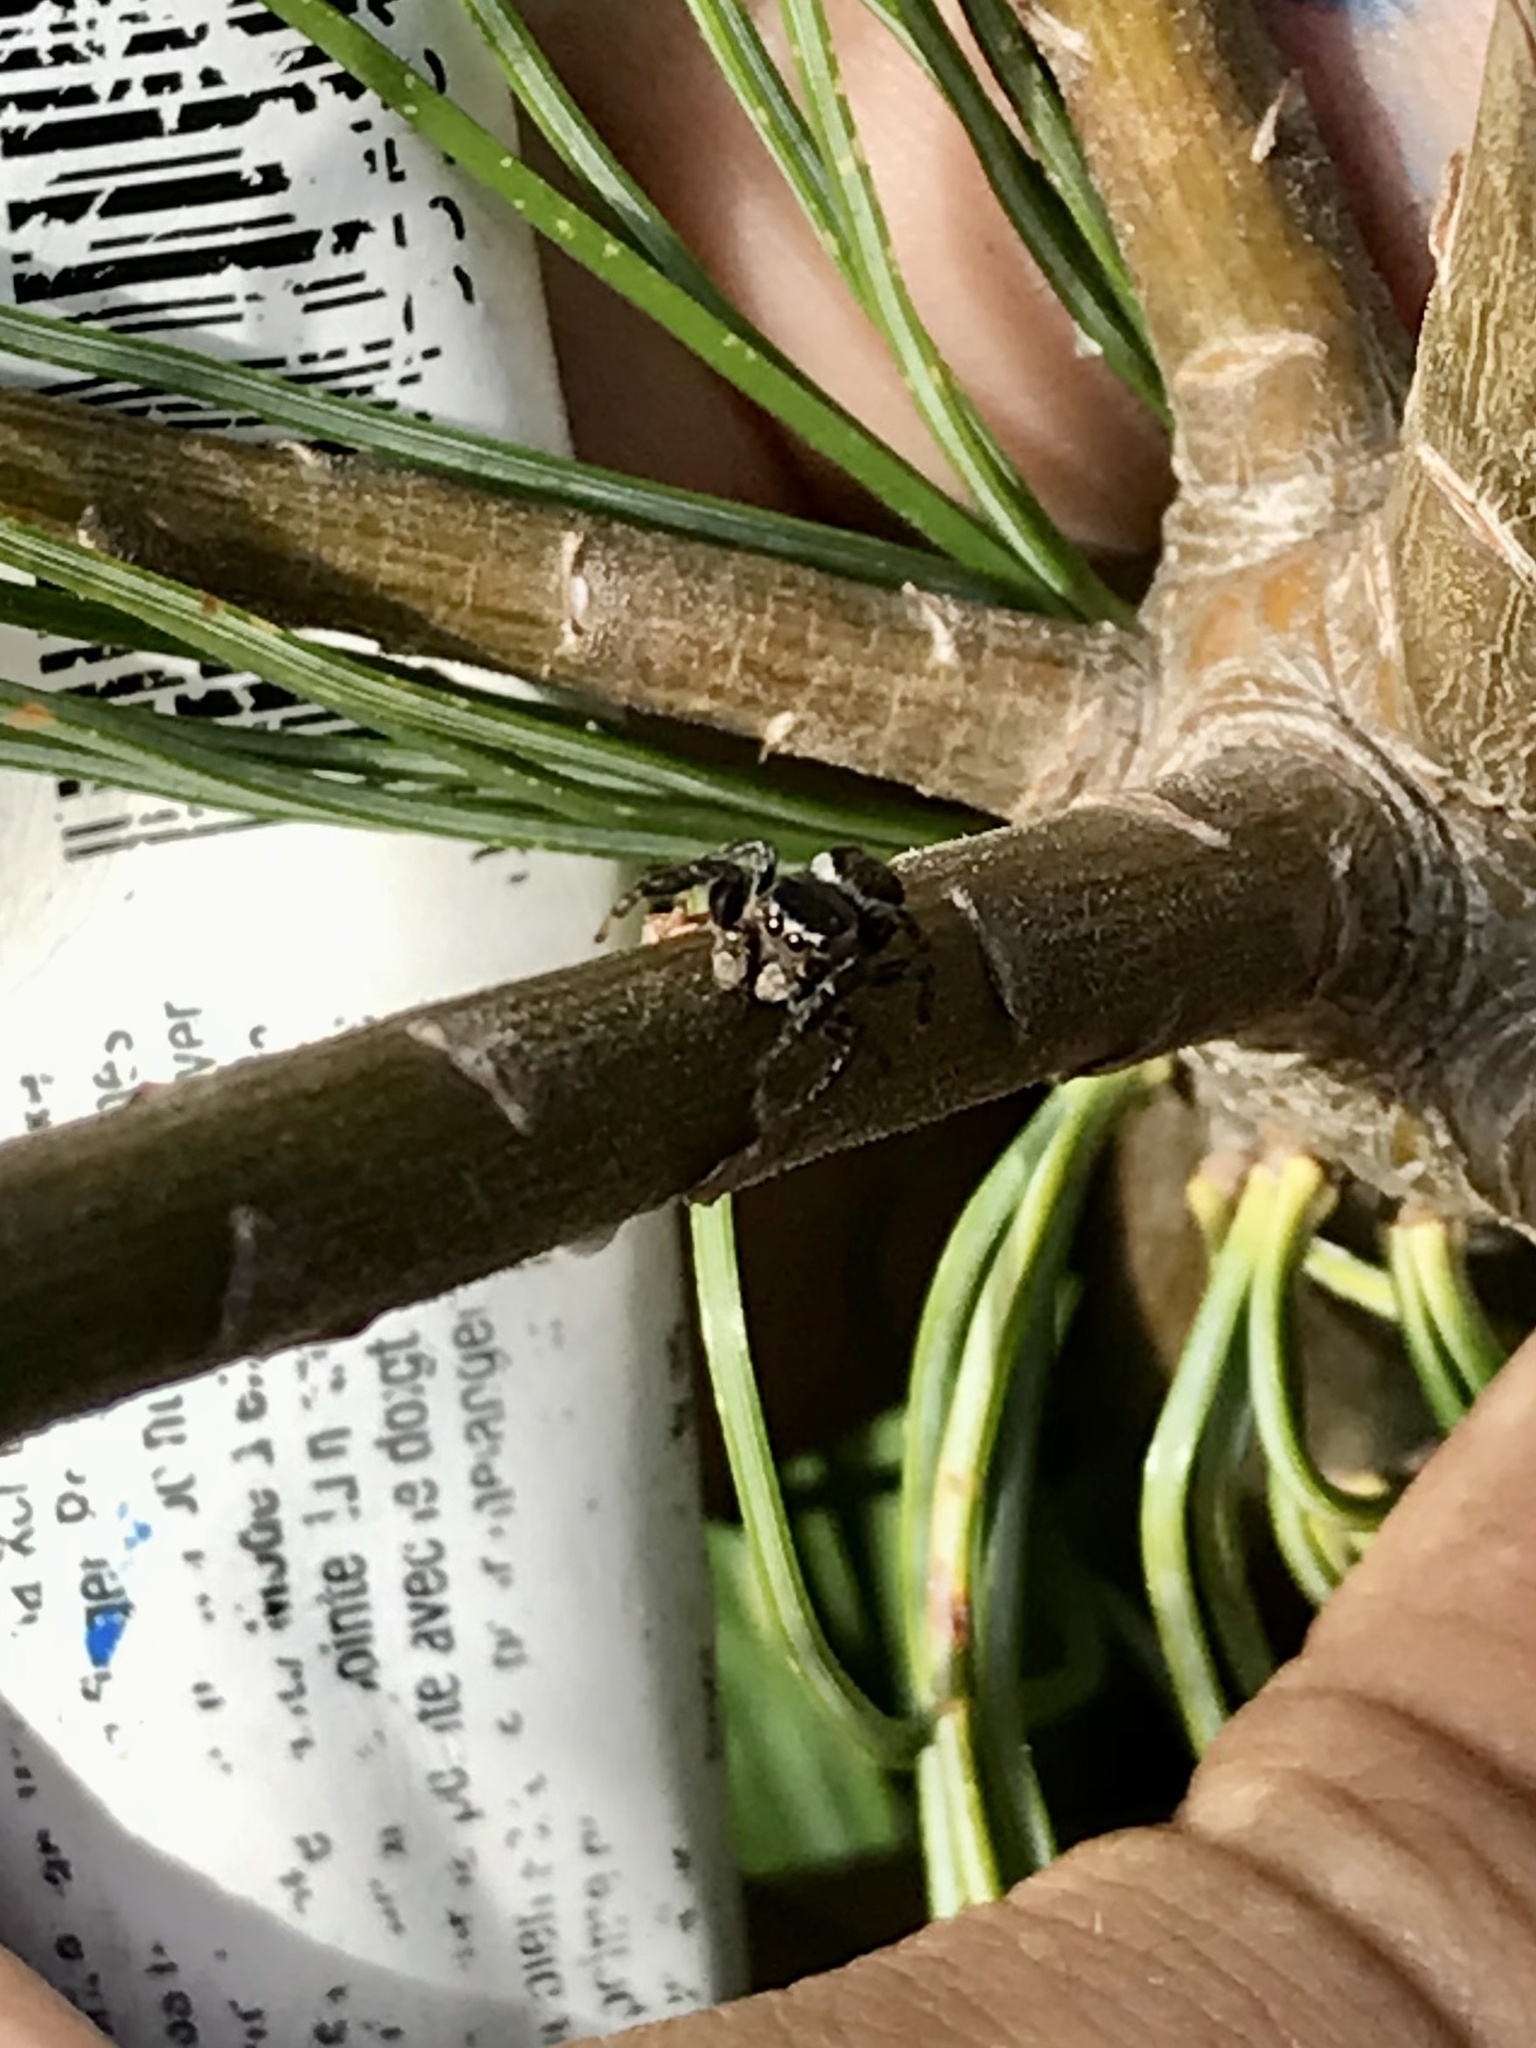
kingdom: Animalia
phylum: Arthropoda
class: Arachnida
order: Araneae
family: Salticidae
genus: Evarcha
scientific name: Evarcha hoyi
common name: Hoy's jumping spider
